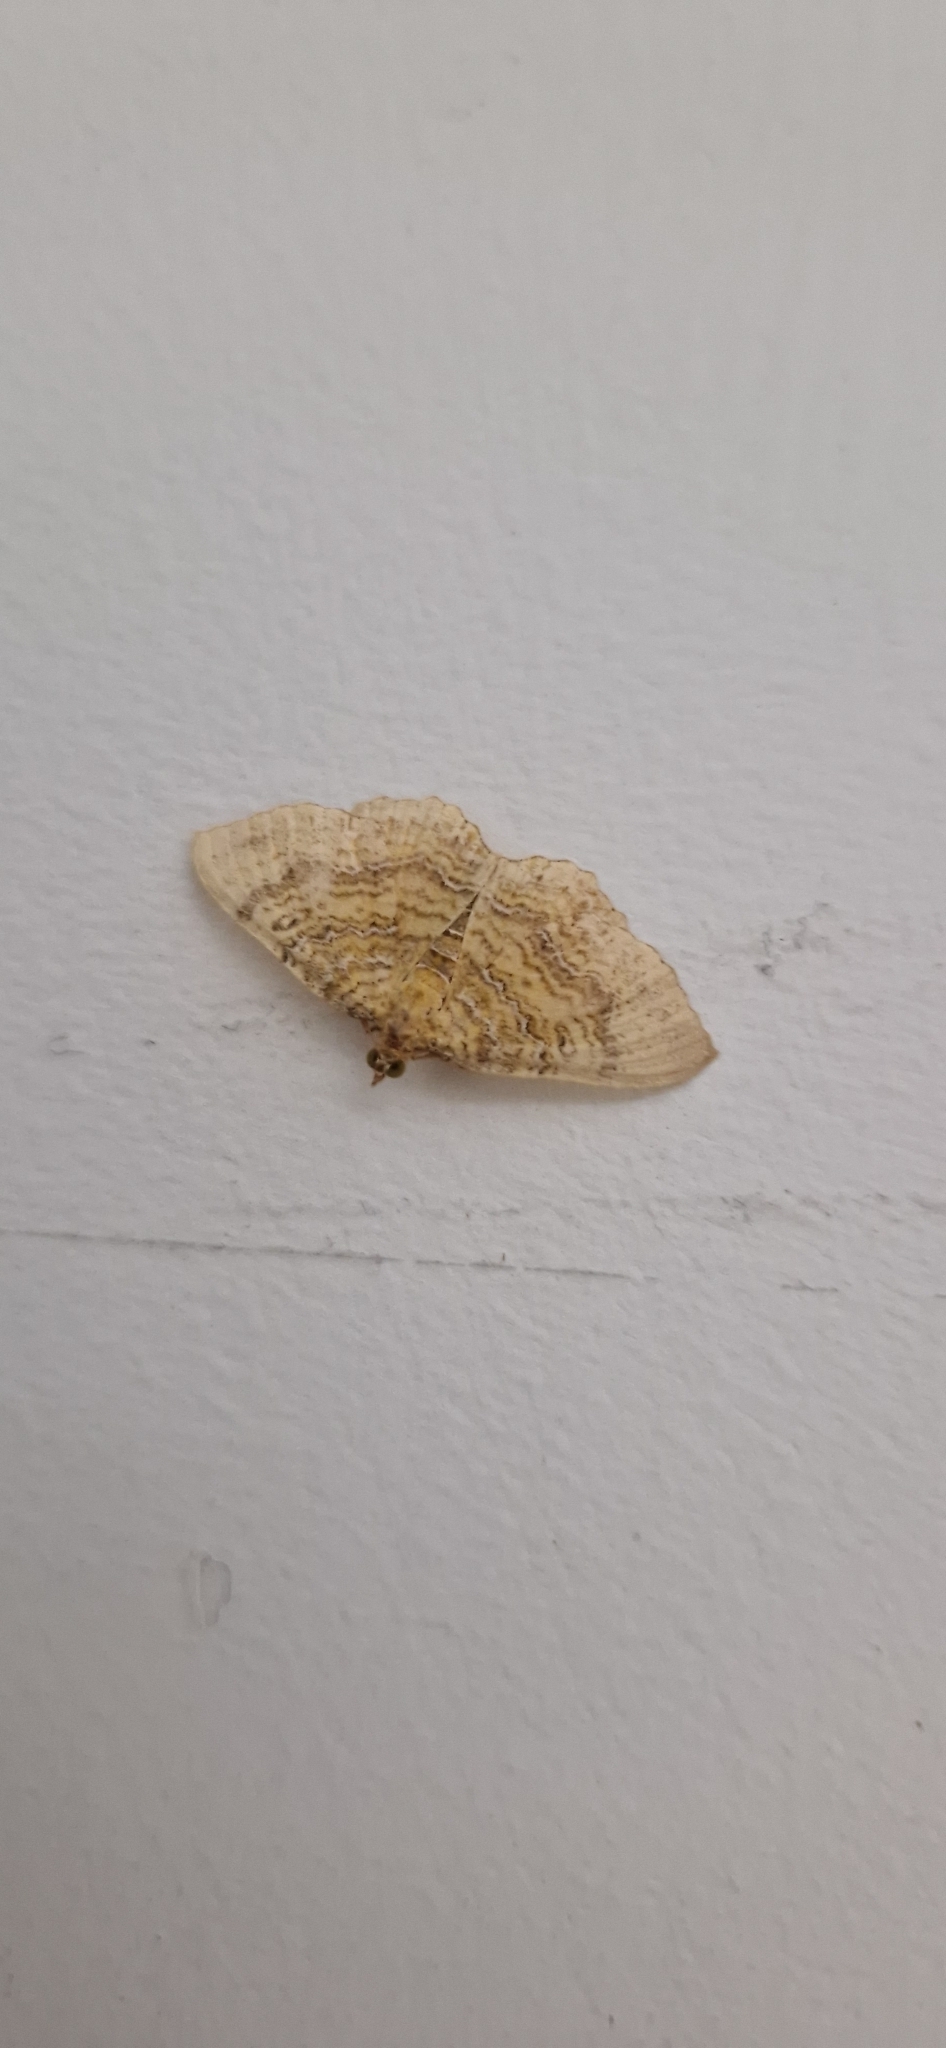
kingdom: Animalia
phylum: Arthropoda
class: Insecta
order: Lepidoptera
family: Geometridae
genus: Camptogramma
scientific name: Camptogramma bilineata
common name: Yellow shell
